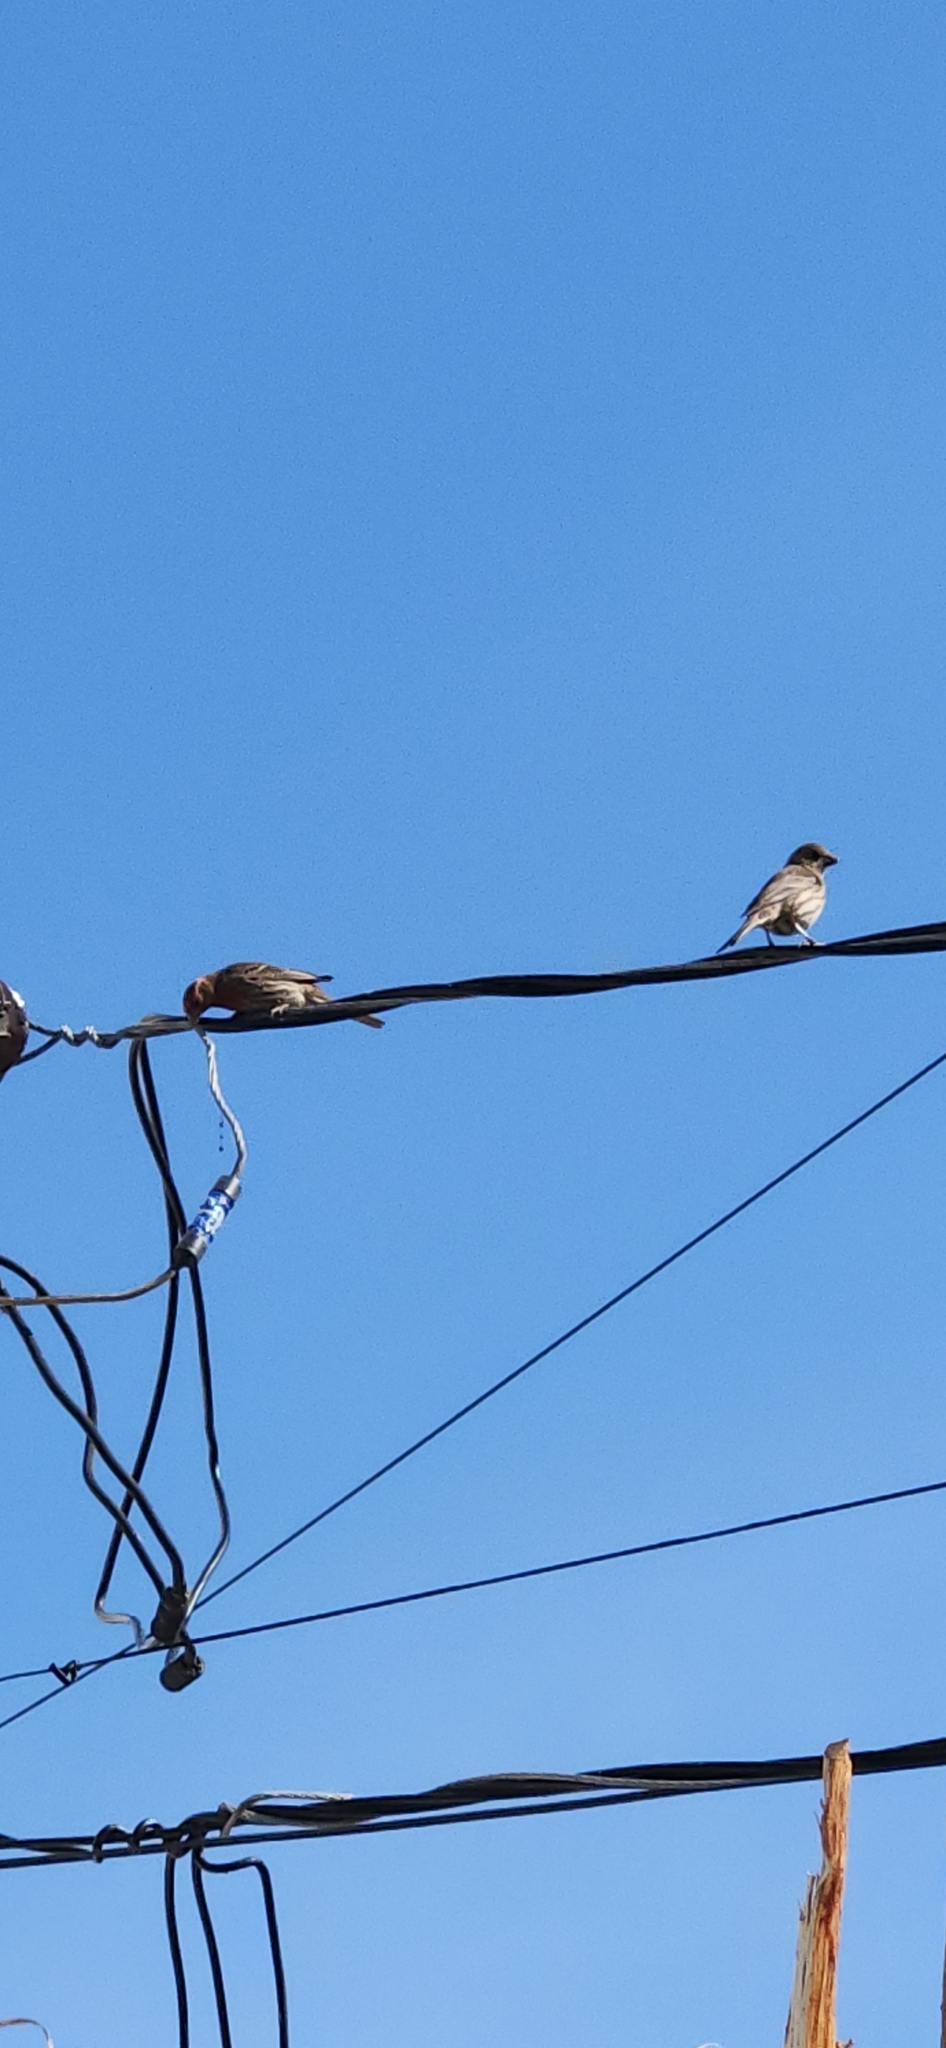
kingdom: Animalia
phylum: Chordata
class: Aves
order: Passeriformes
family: Fringillidae
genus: Haemorhous
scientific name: Haemorhous mexicanus
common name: House finch
